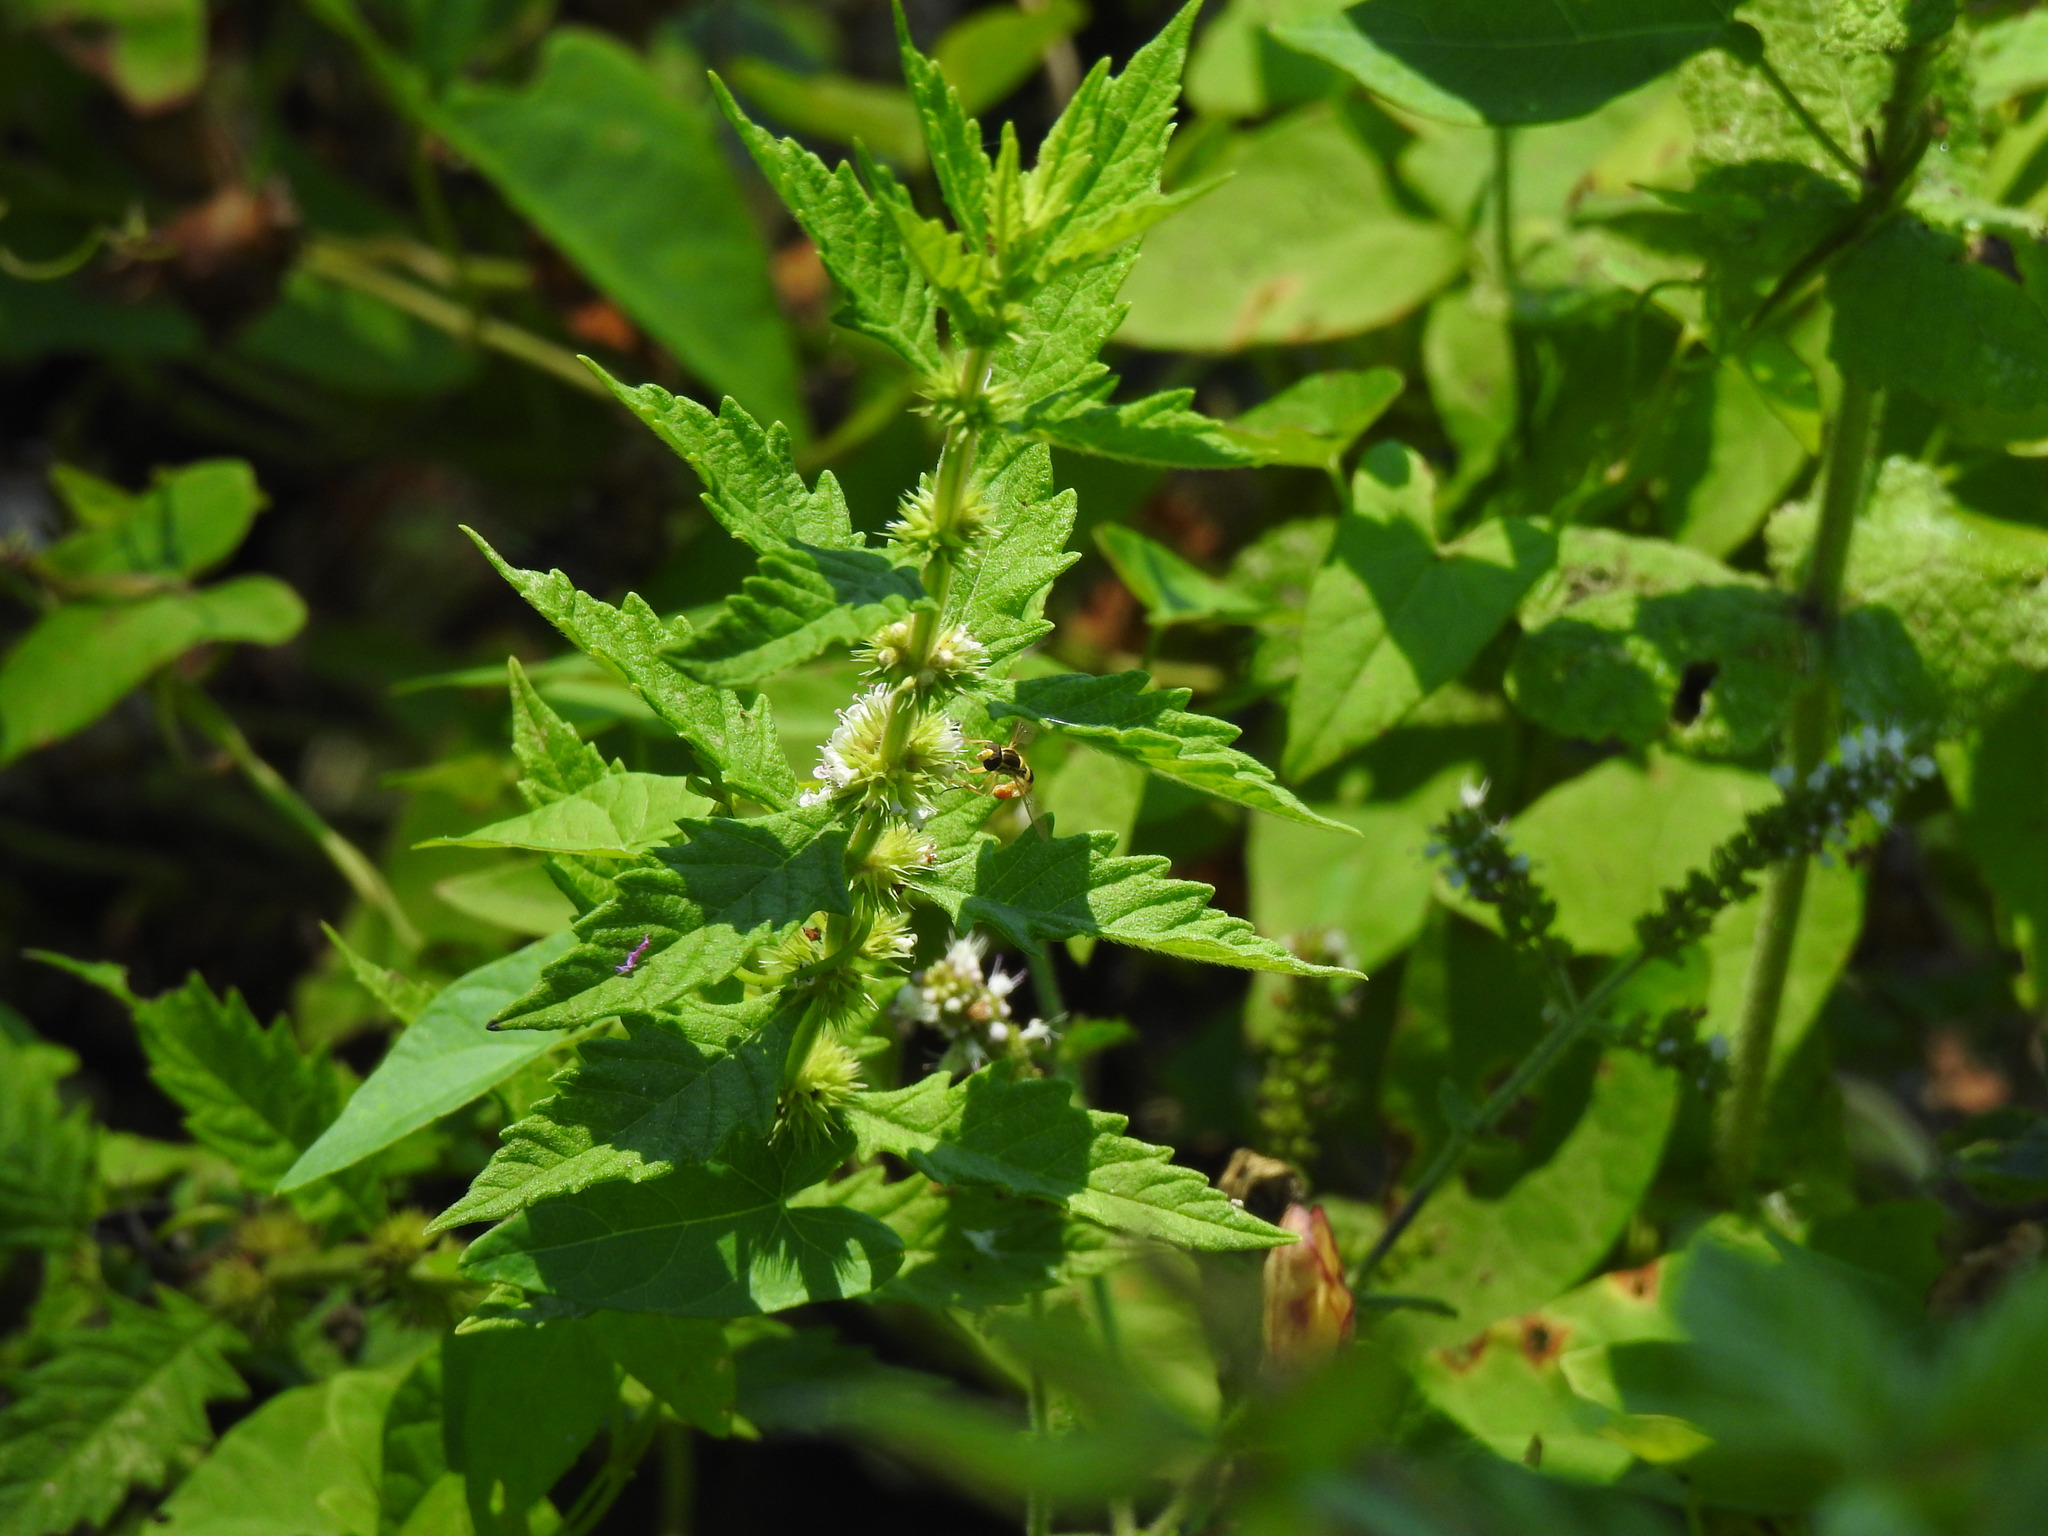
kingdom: Plantae
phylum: Tracheophyta
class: Magnoliopsida
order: Lamiales
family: Lamiaceae
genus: Lycopus
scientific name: Lycopus europaeus
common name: European bugleweed
